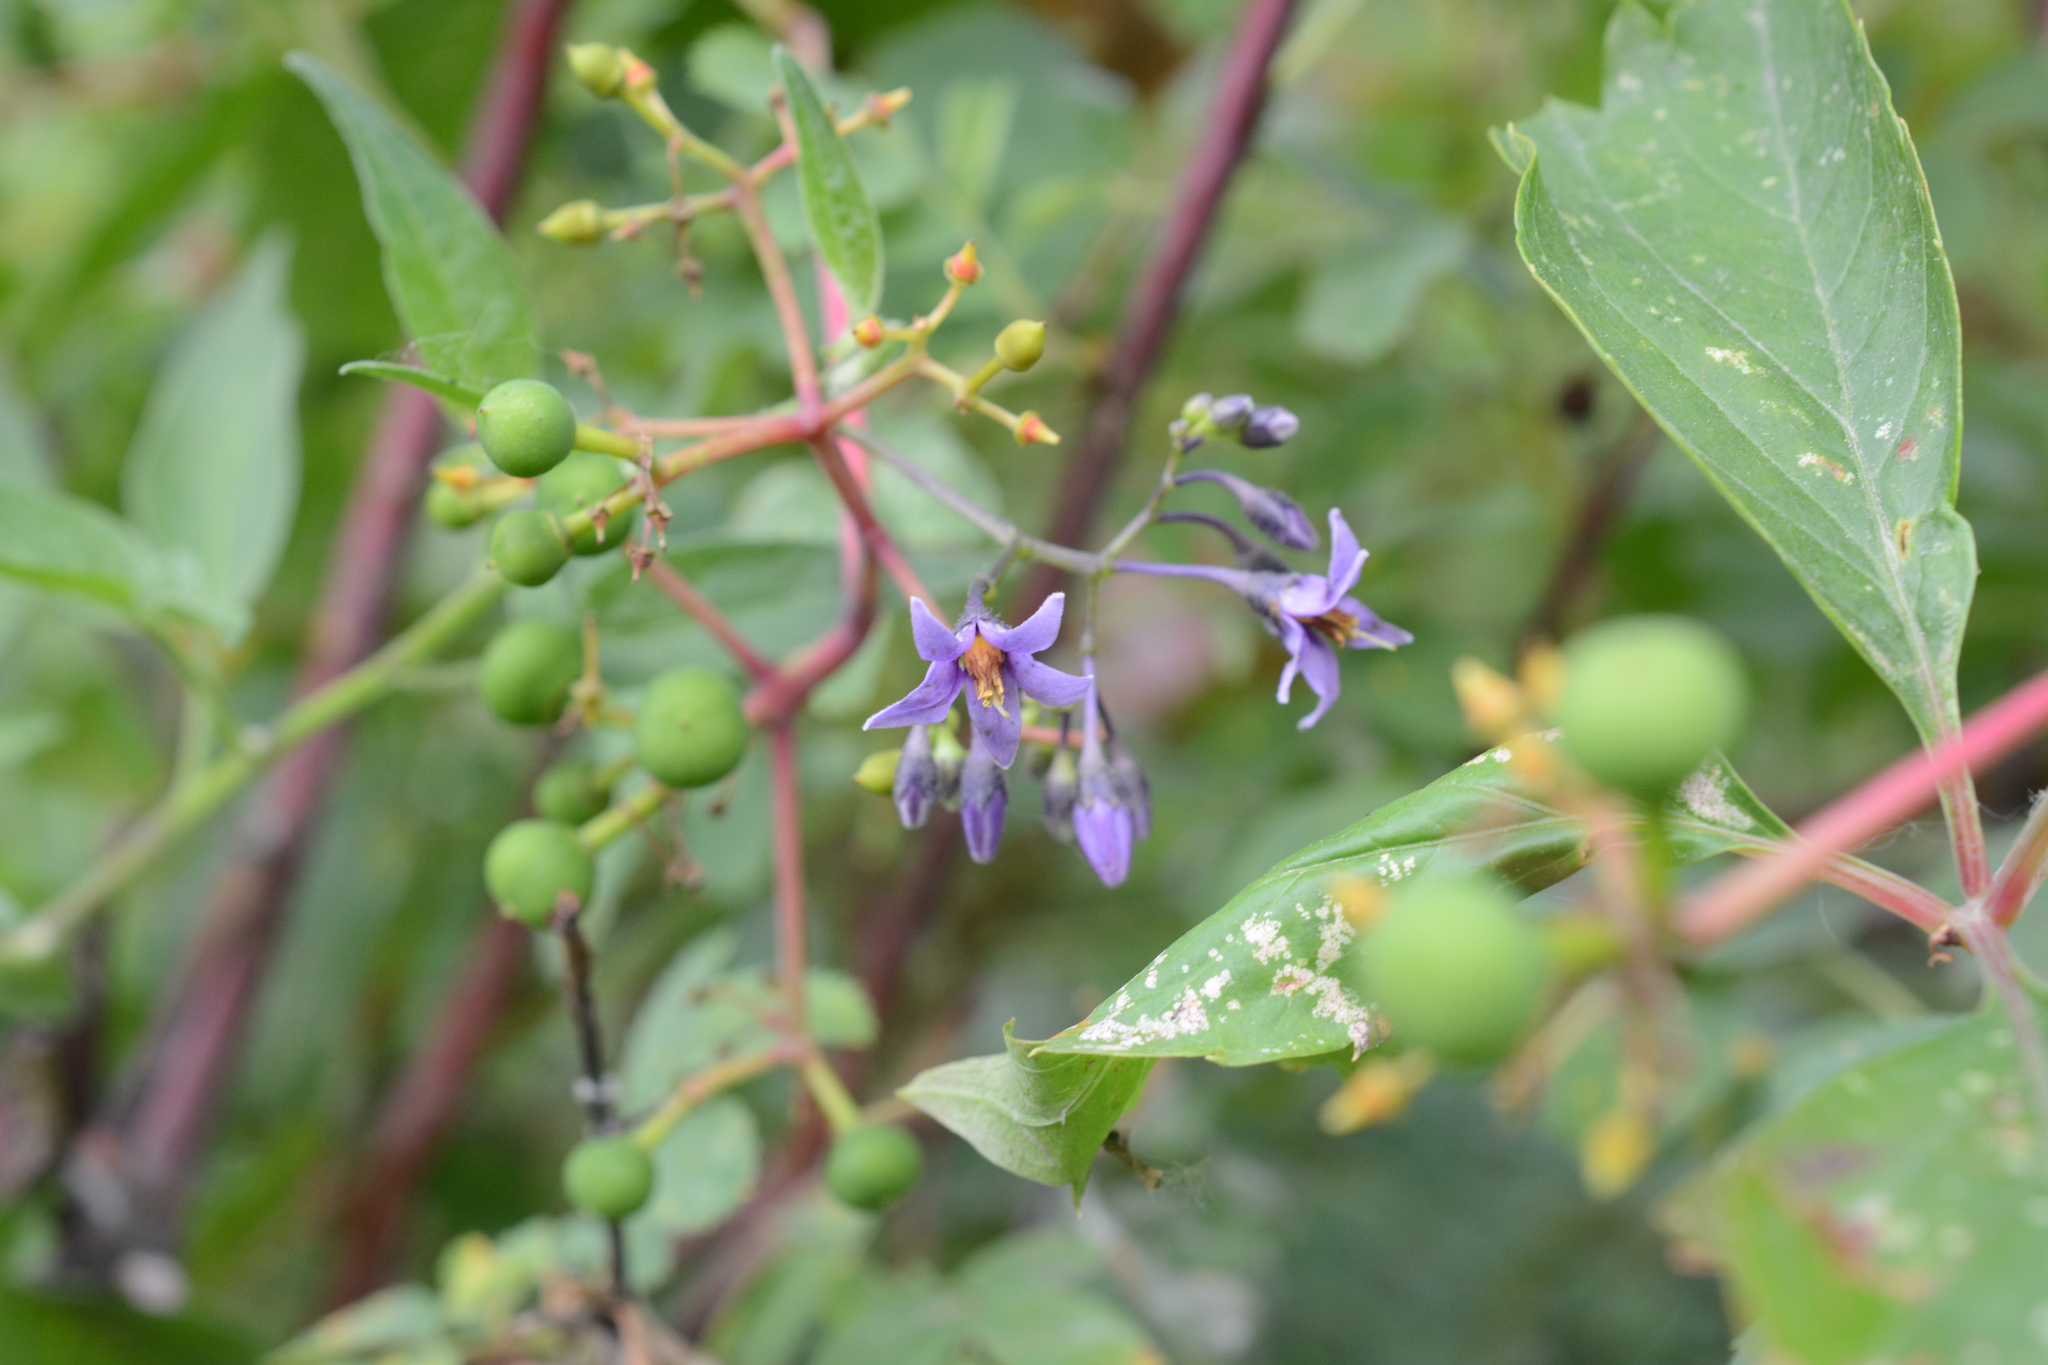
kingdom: Plantae
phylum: Tracheophyta
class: Magnoliopsida
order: Solanales
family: Solanaceae
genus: Solanum
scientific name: Solanum dulcamara
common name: Climbing nightshade
